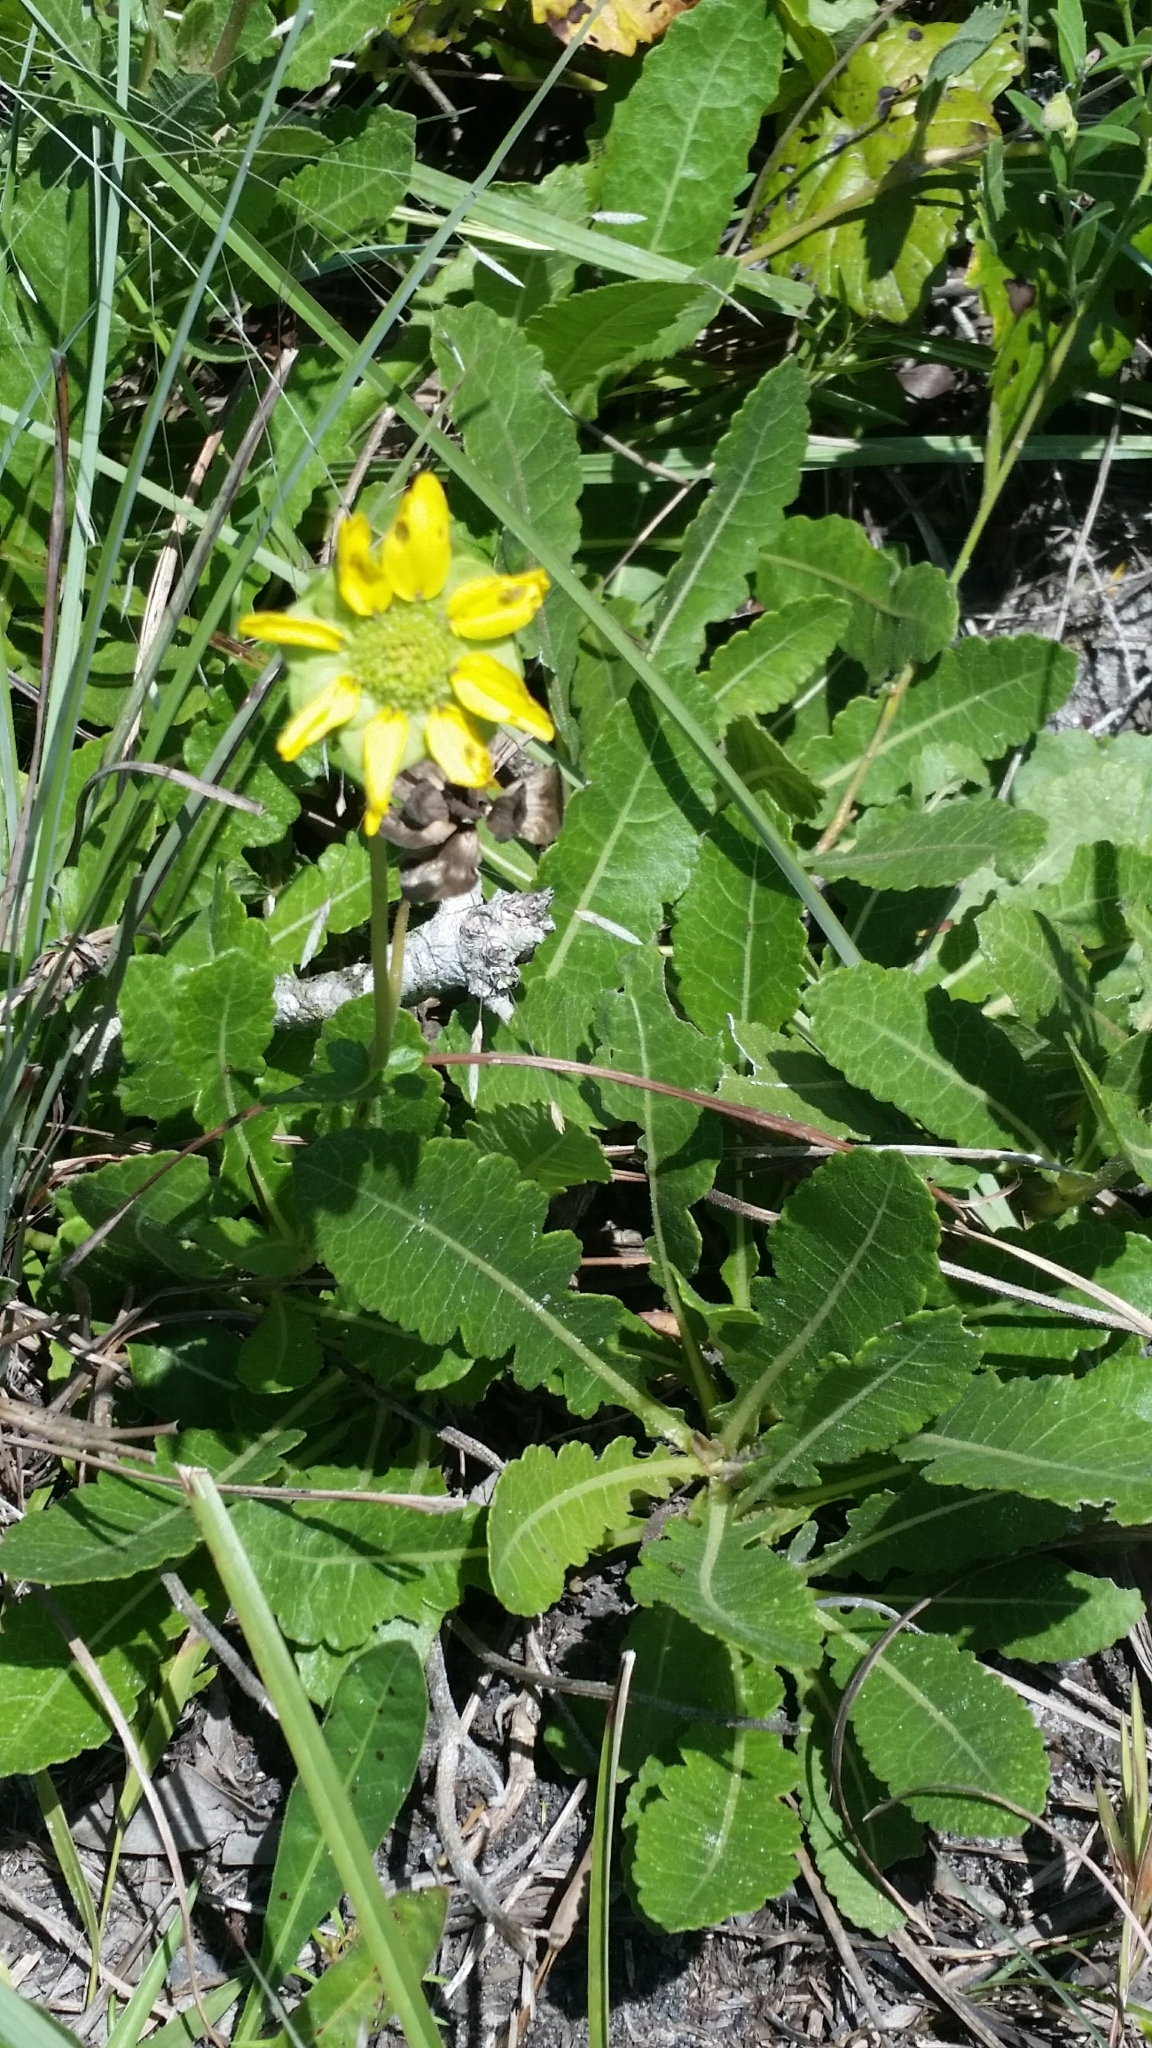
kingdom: Plantae
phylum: Tracheophyta
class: Magnoliopsida
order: Asterales
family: Asteraceae
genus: Berlandiera
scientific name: Berlandiera subacaulis
